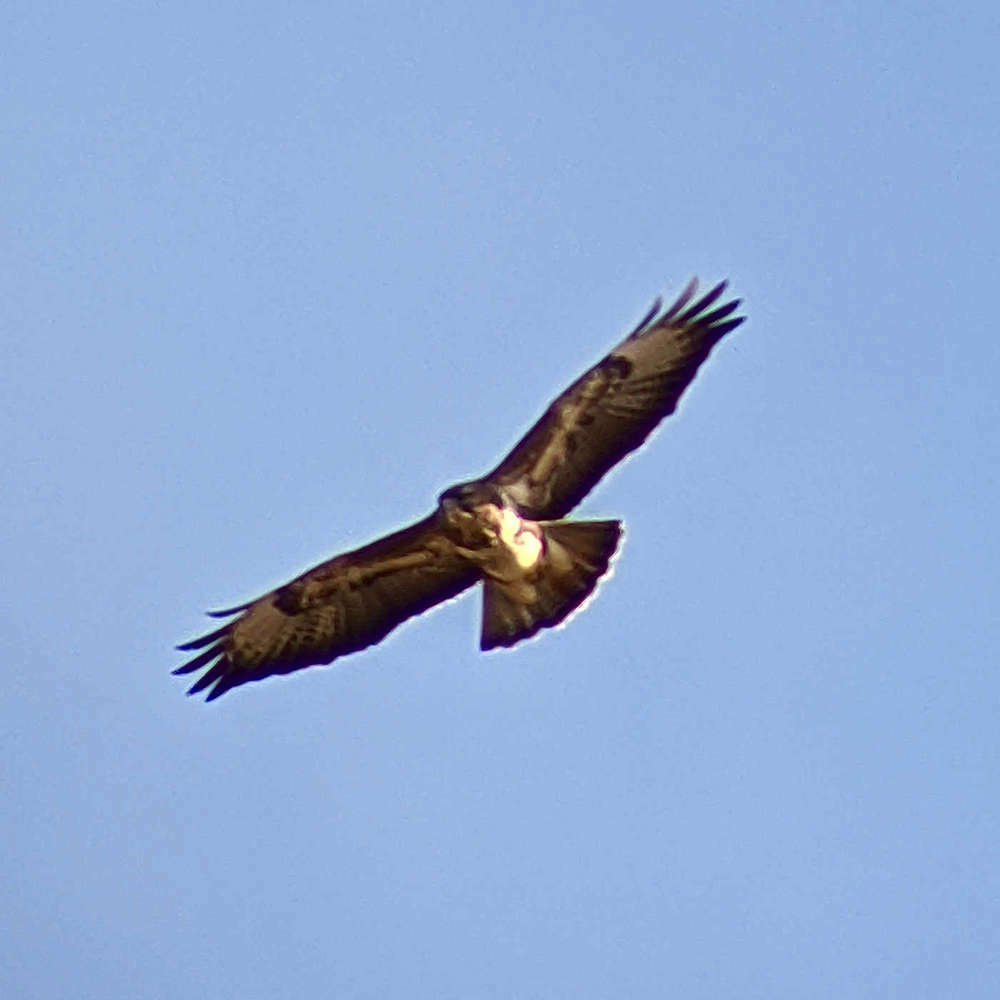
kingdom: Animalia
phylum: Chordata
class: Aves
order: Accipitriformes
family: Accipitridae
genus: Buteo
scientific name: Buteo buteo
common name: Common buzzard
